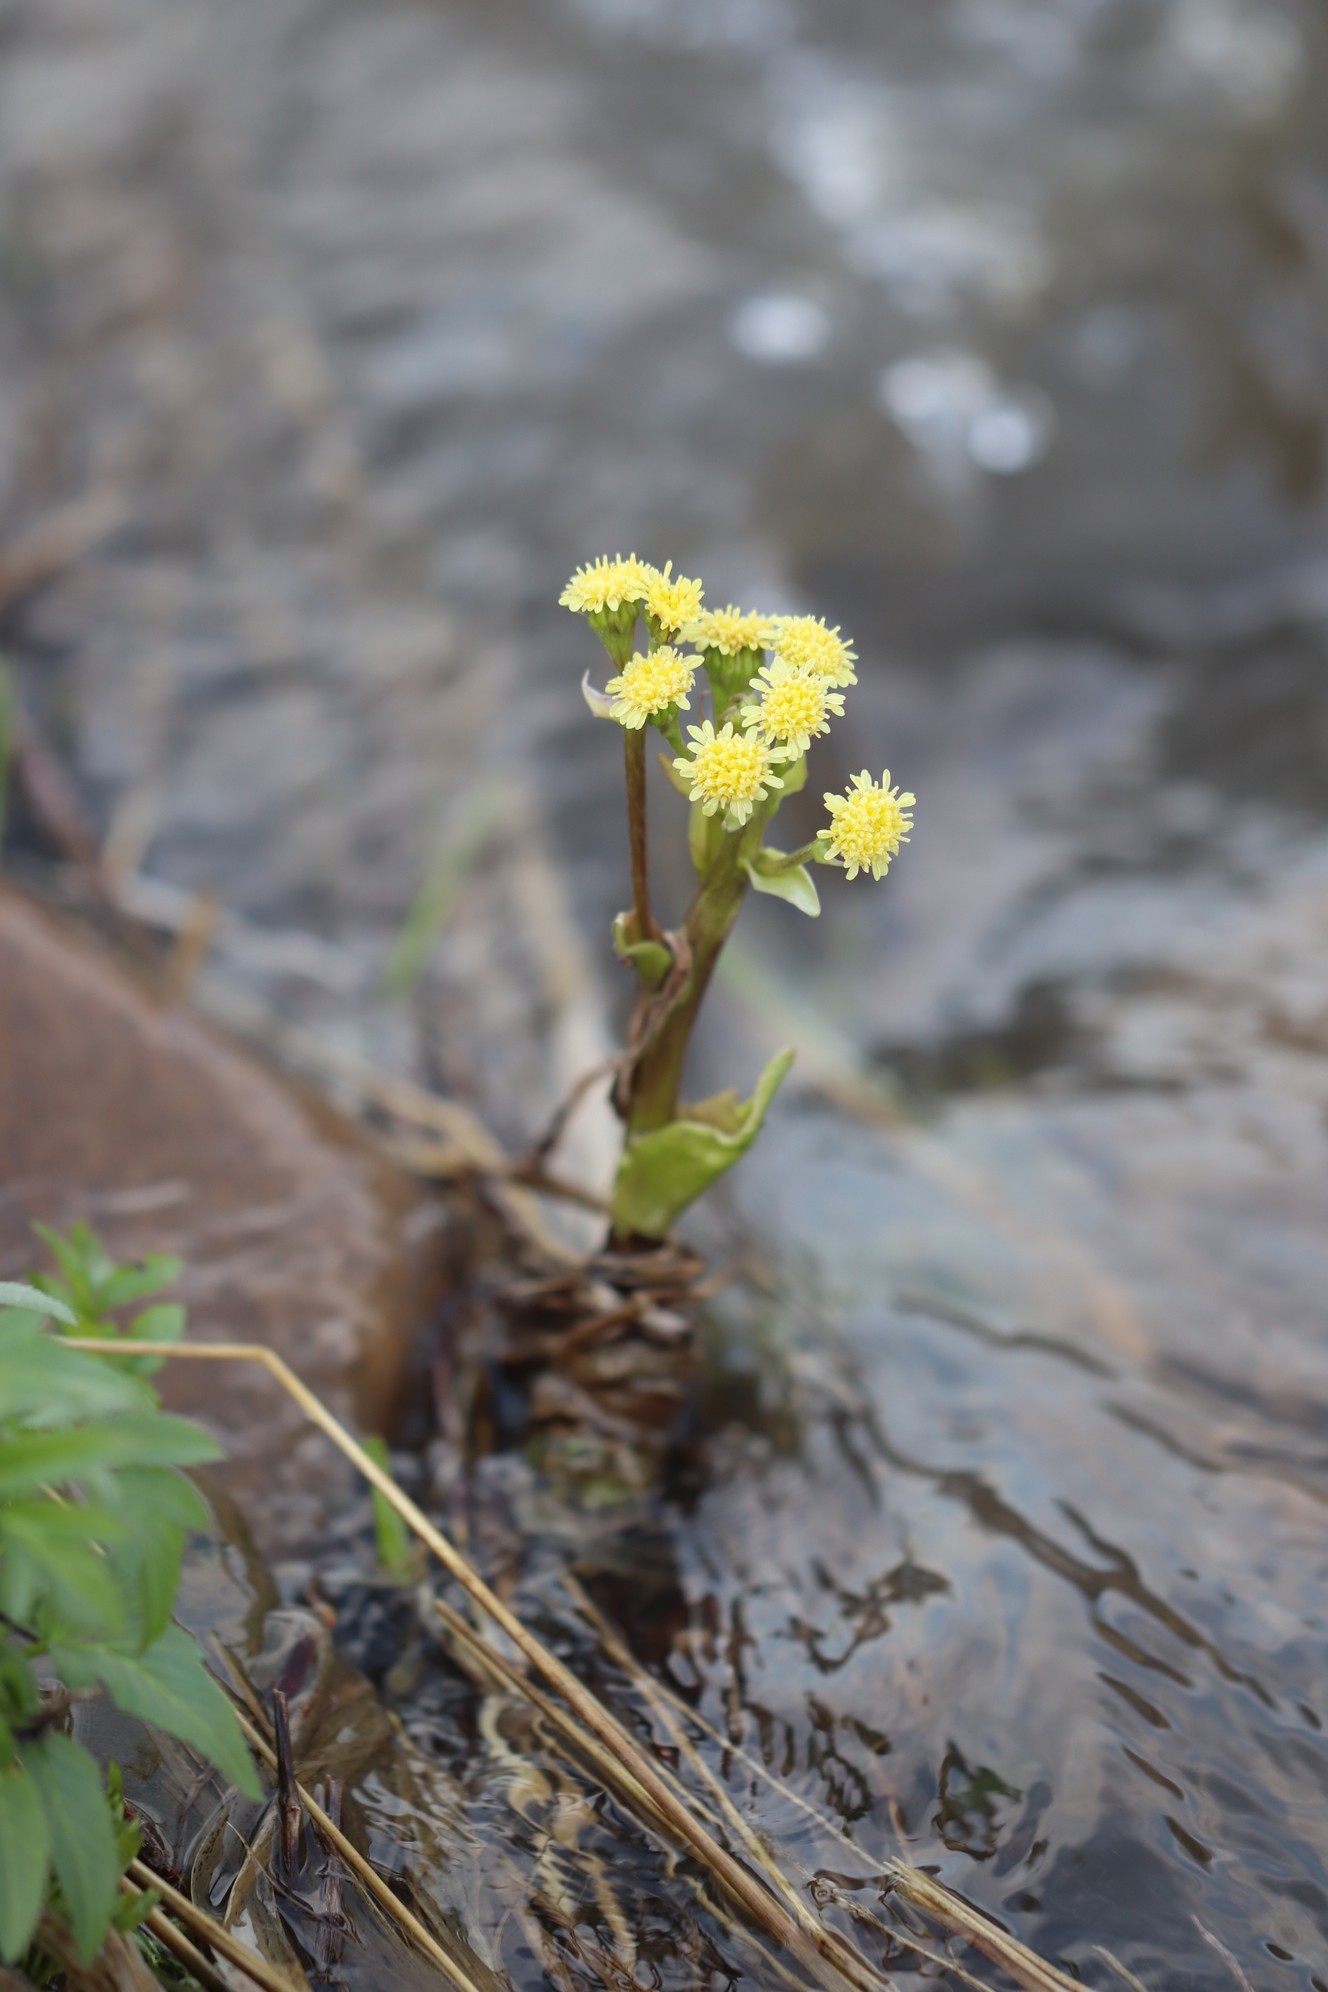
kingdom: Plantae
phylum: Tracheophyta
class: Magnoliopsida
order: Asterales
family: Asteraceae
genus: Petasites
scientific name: Petasites radiatus
